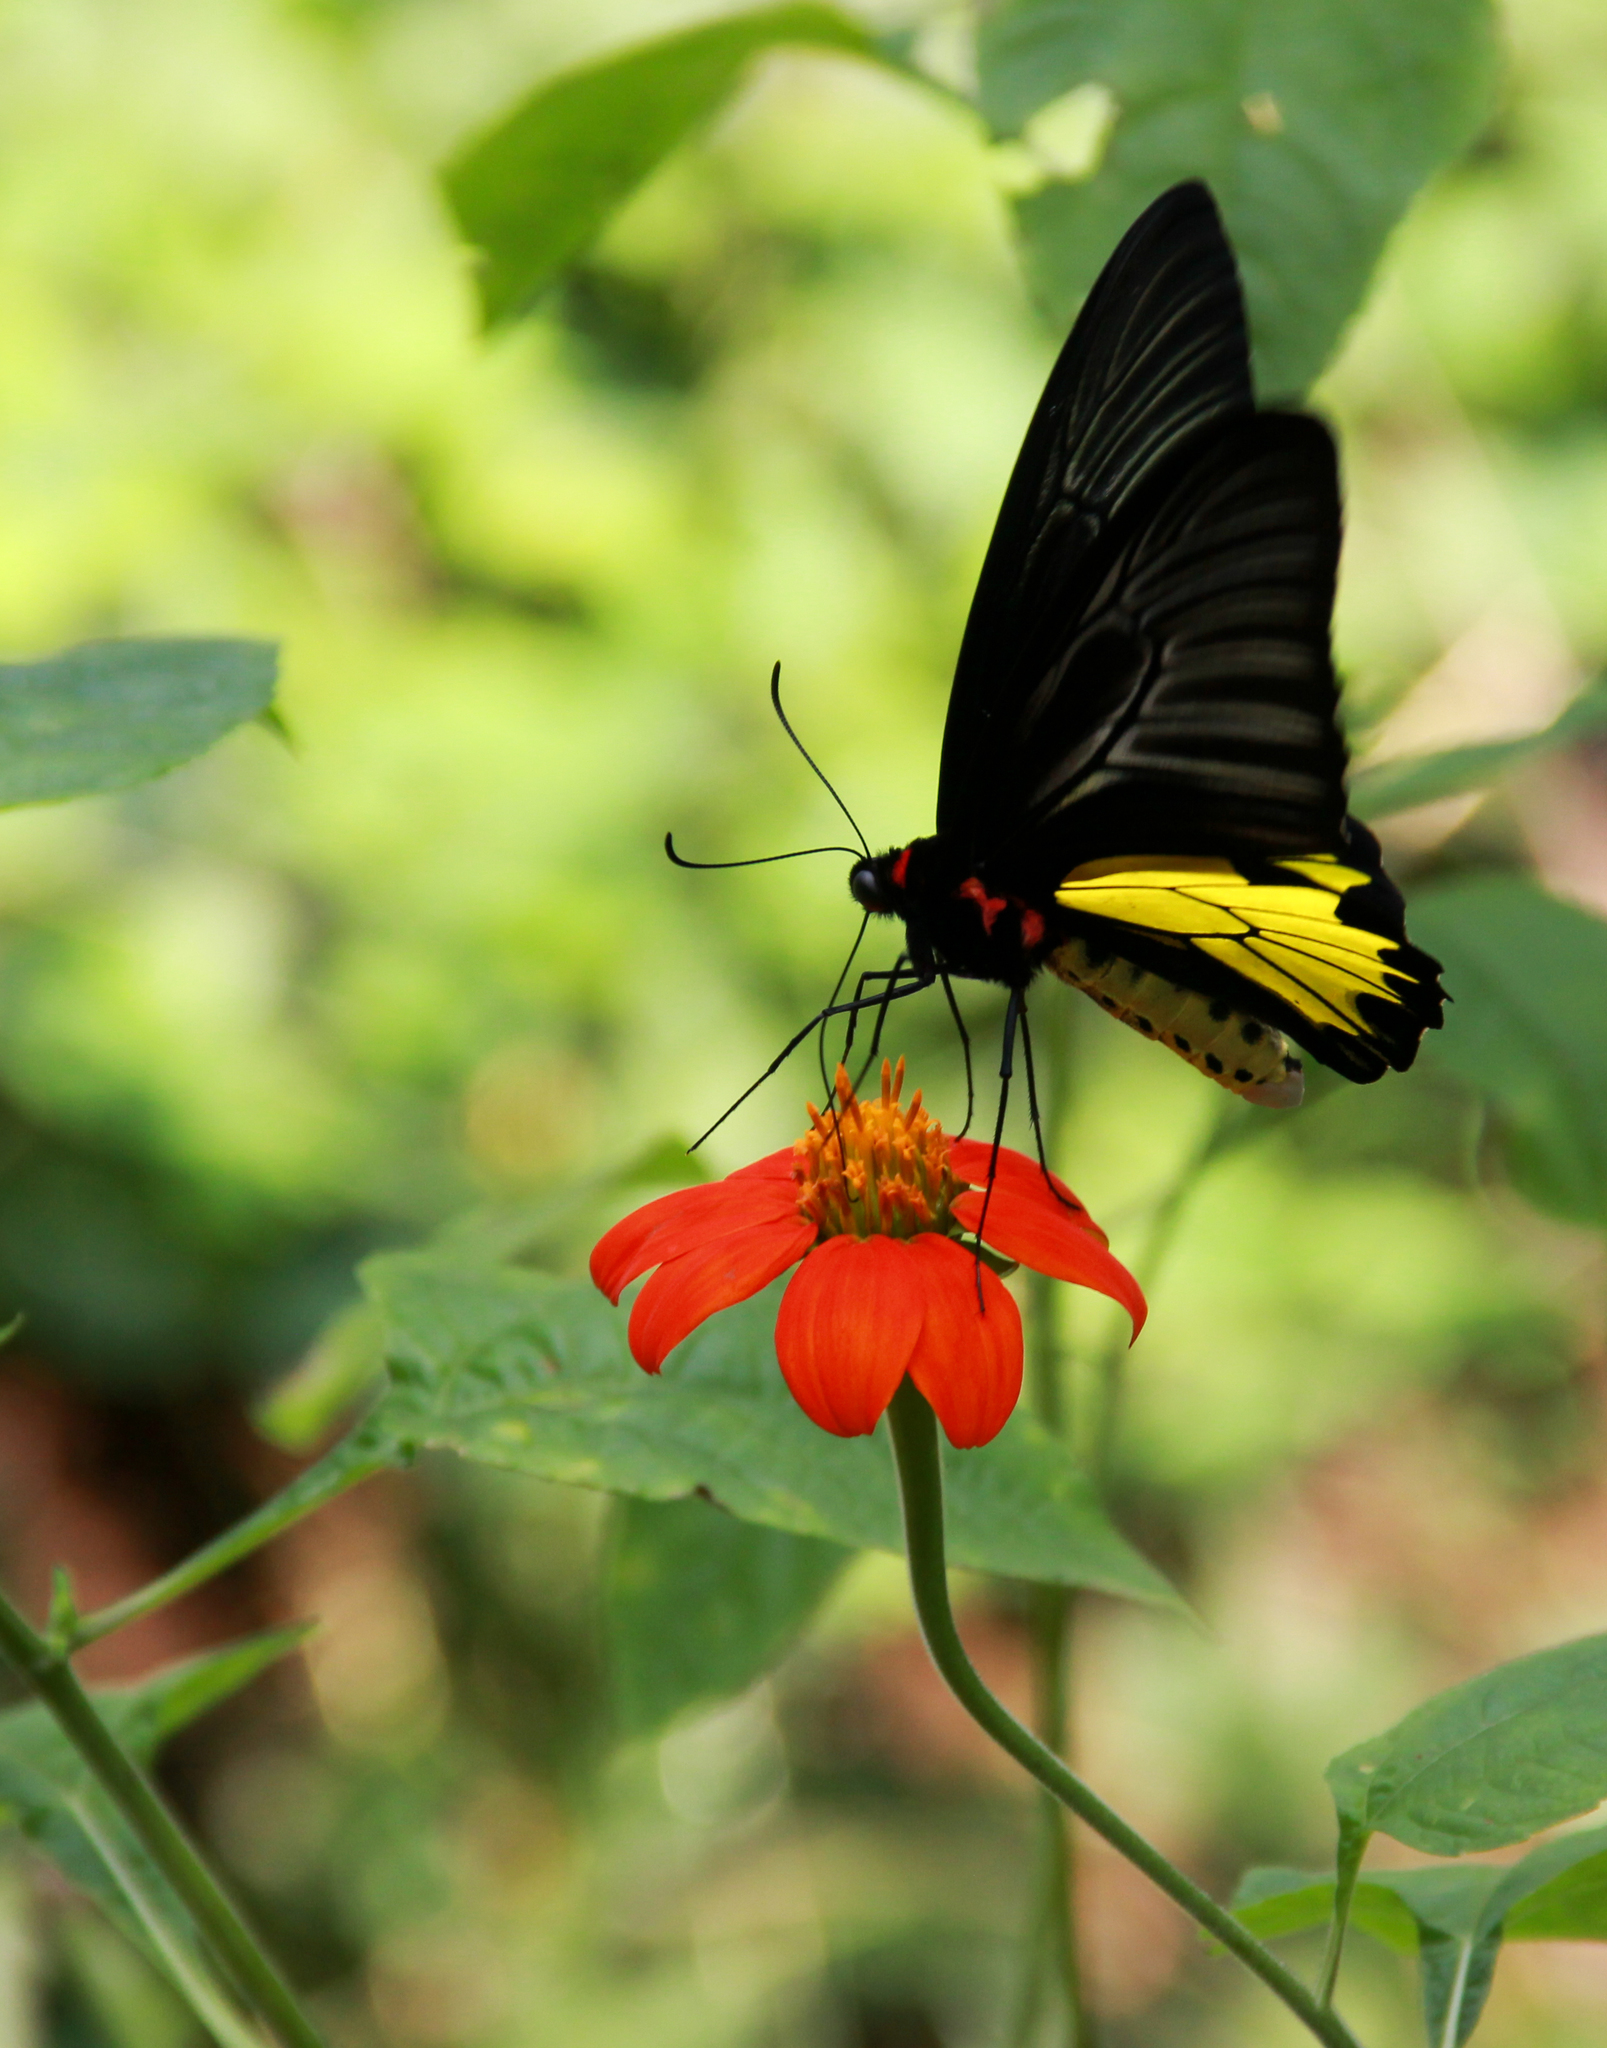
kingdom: Animalia
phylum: Arthropoda
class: Insecta
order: Lepidoptera
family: Papilionidae
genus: Troides
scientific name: Troides minos
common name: Malabar birdwing
